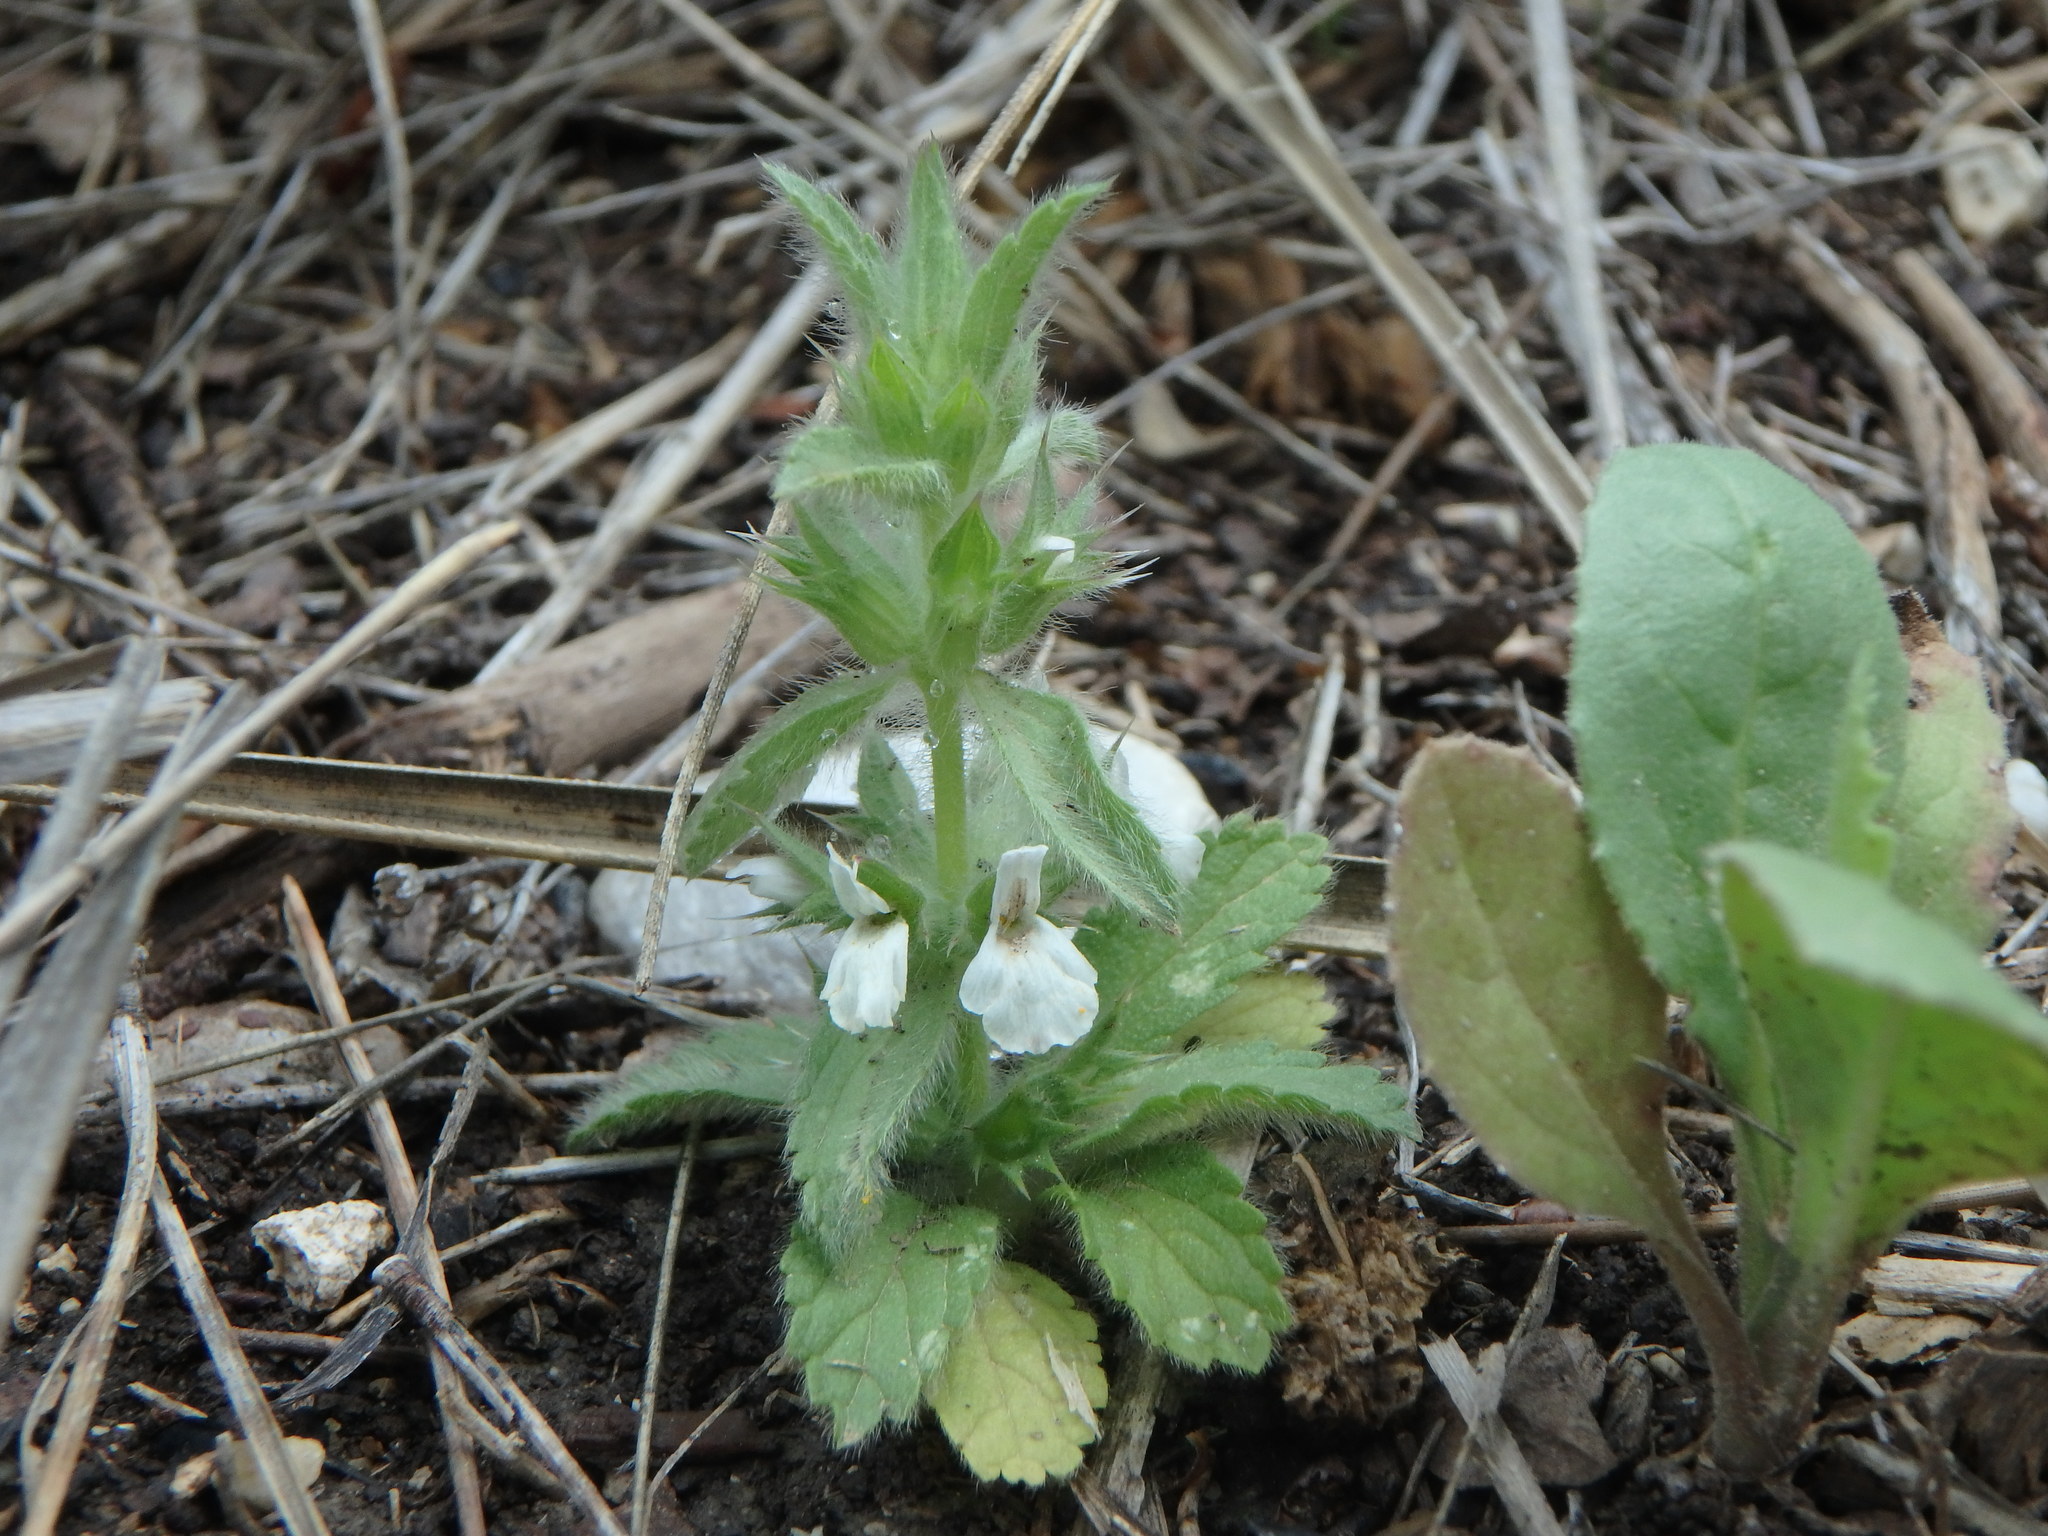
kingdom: Plantae
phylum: Tracheophyta
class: Magnoliopsida
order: Lamiales
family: Lamiaceae
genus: Sideritis
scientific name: Sideritis romana
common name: Simplebeak ironwort
